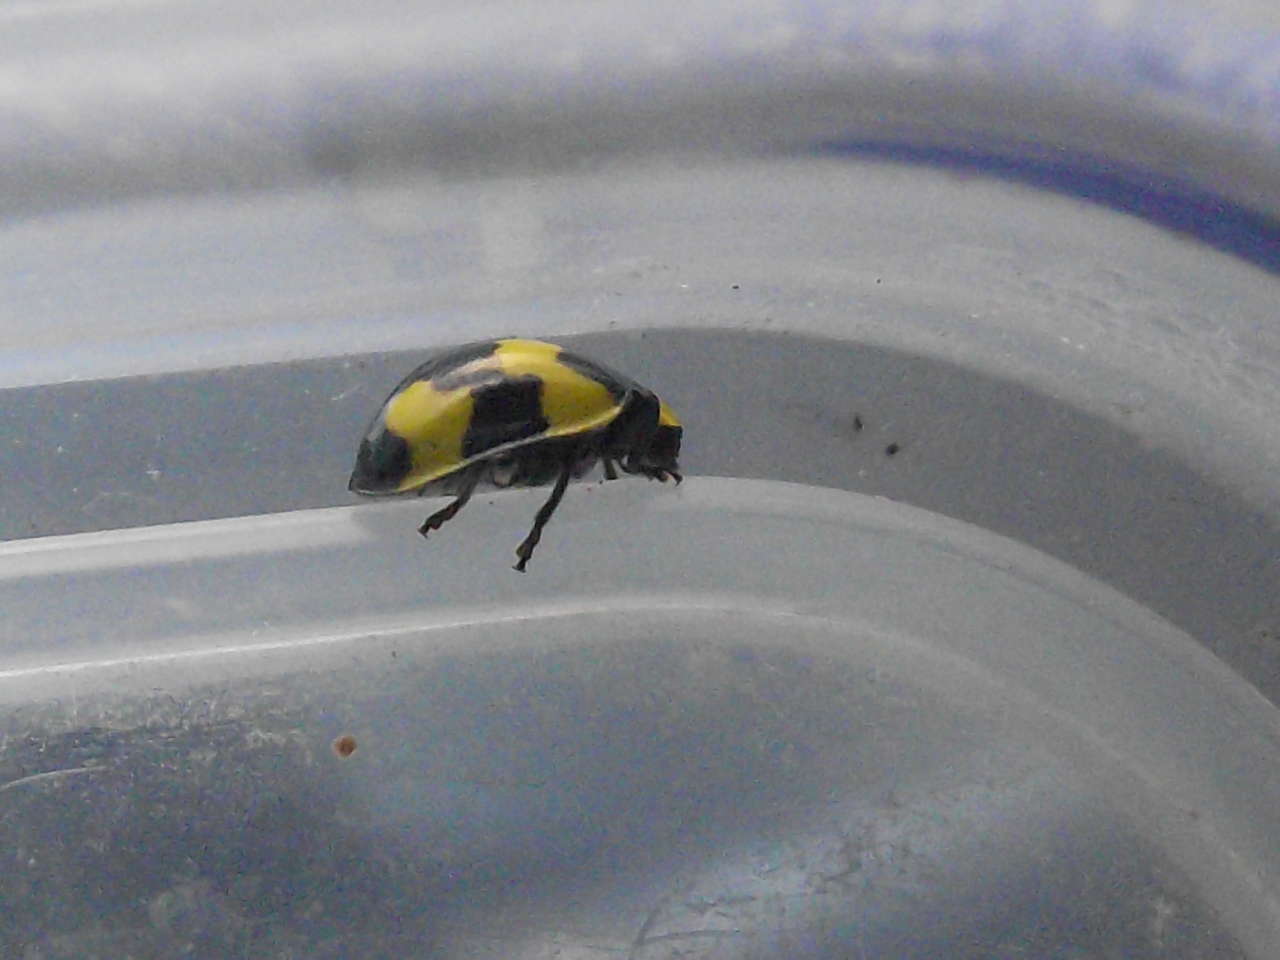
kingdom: Animalia
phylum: Arthropoda
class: Insecta
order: Coleoptera
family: Coccinellidae
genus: Illeis
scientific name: Illeis galbula
